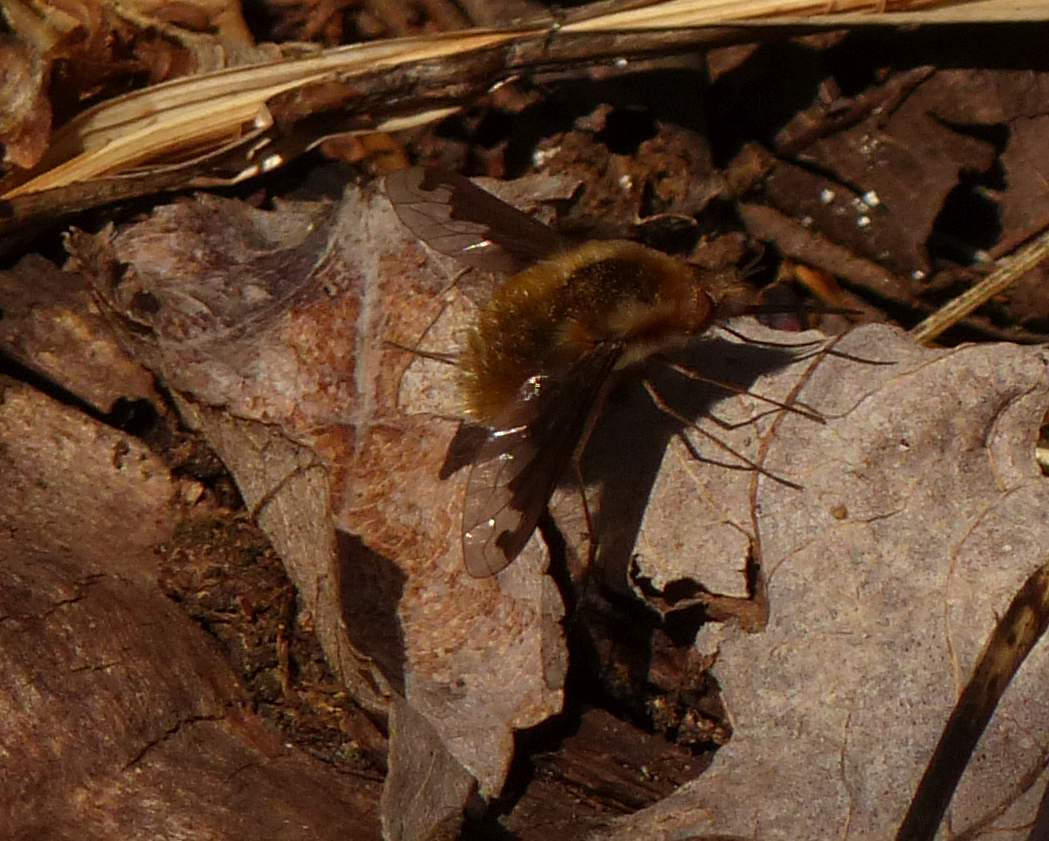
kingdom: Animalia
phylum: Arthropoda
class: Insecta
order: Diptera
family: Bombyliidae
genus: Bombylius
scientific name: Bombylius major
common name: Bee fly
